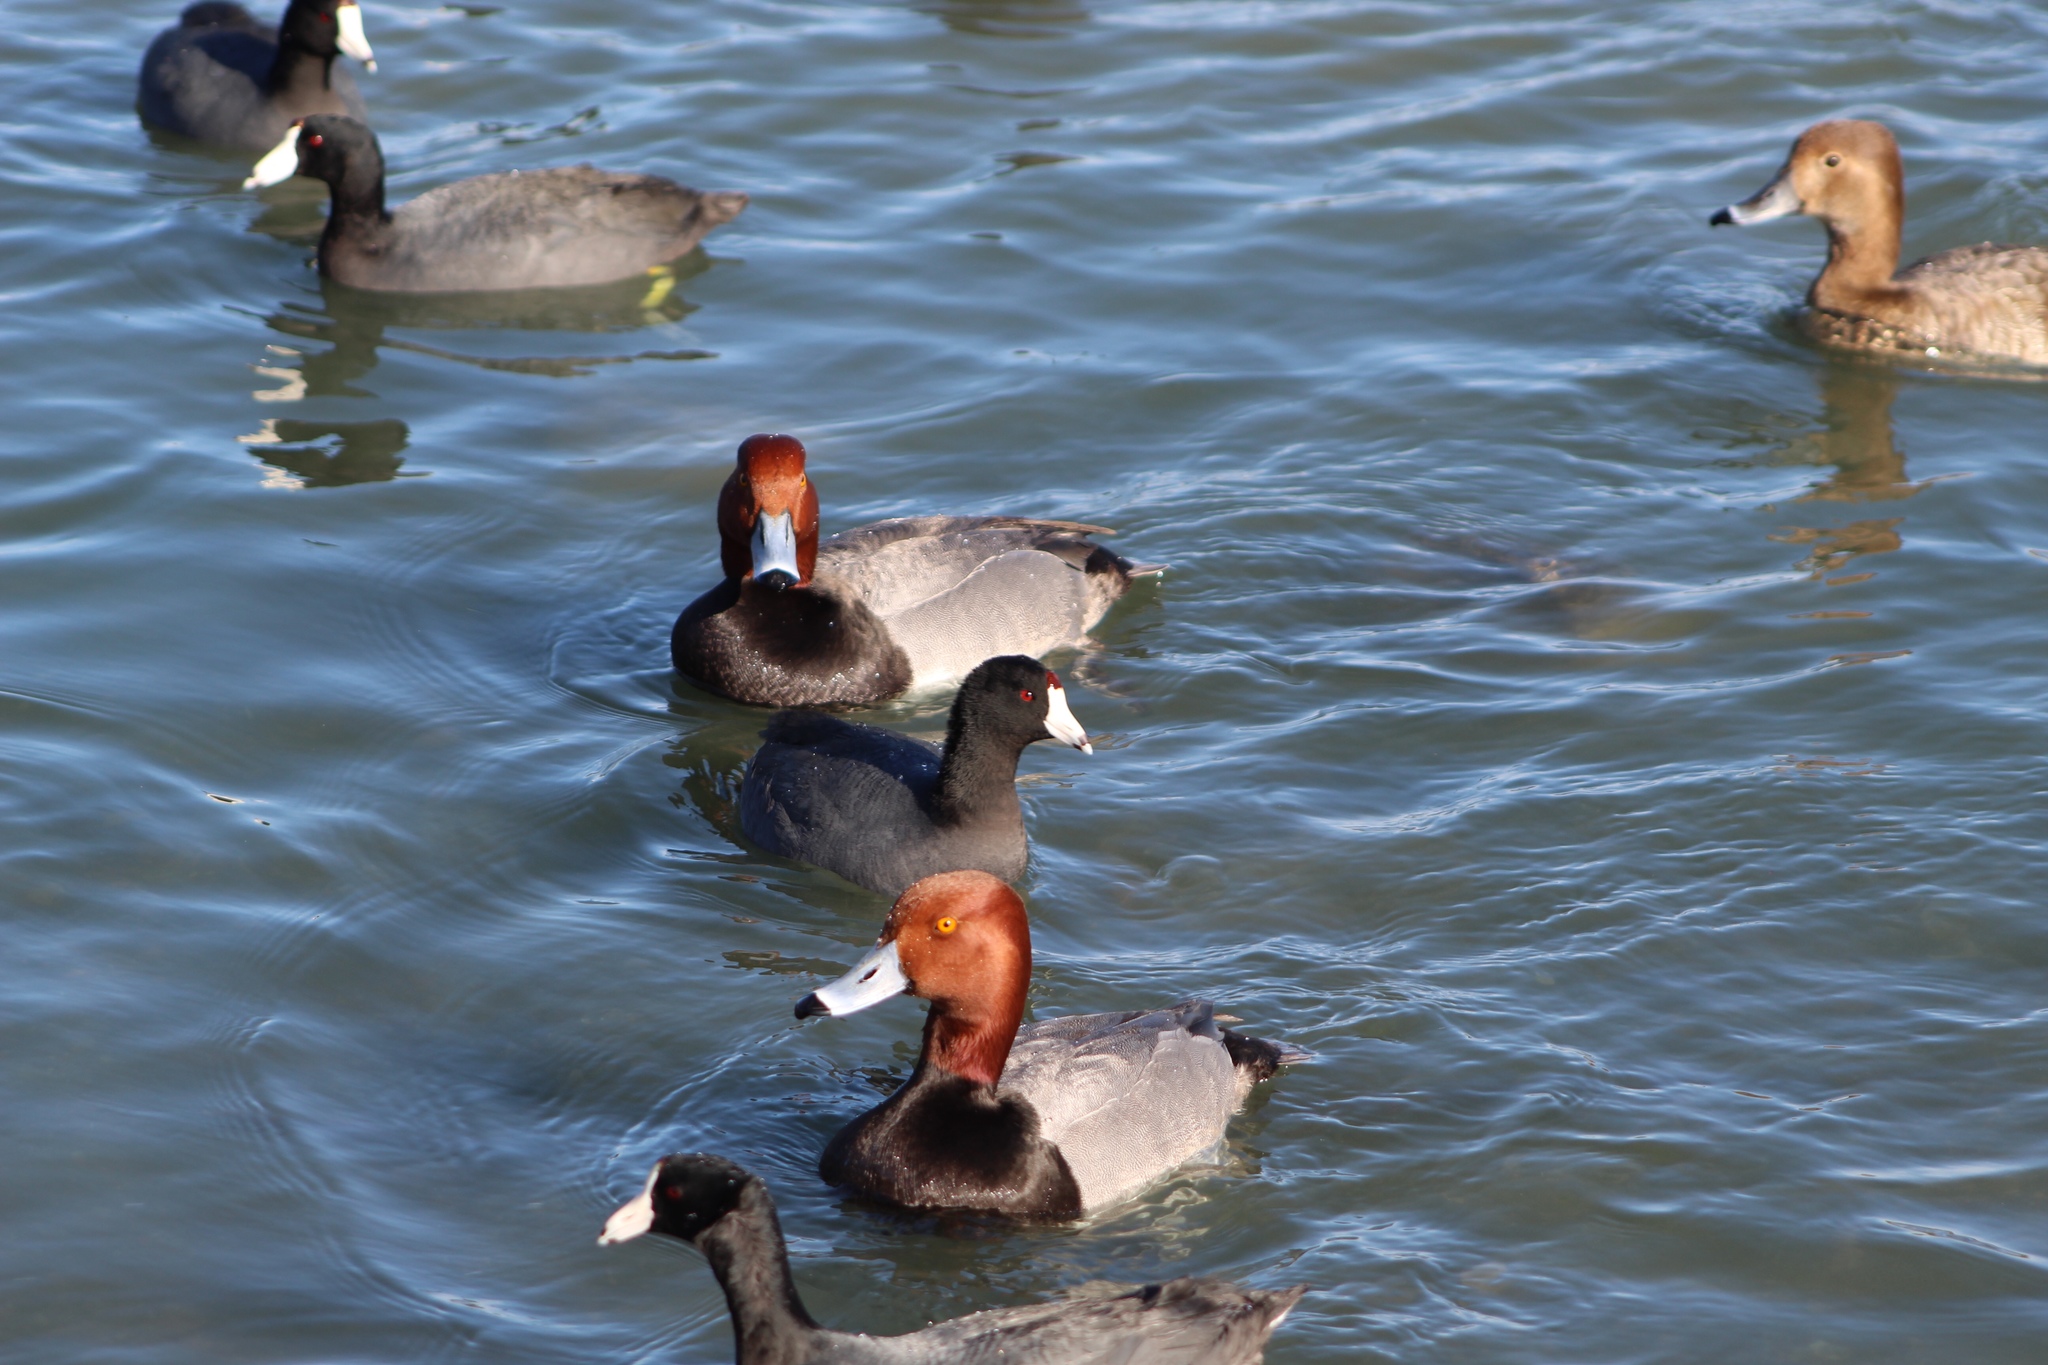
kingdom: Animalia
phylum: Chordata
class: Aves
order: Anseriformes
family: Anatidae
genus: Aythya
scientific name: Aythya americana
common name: Redhead
